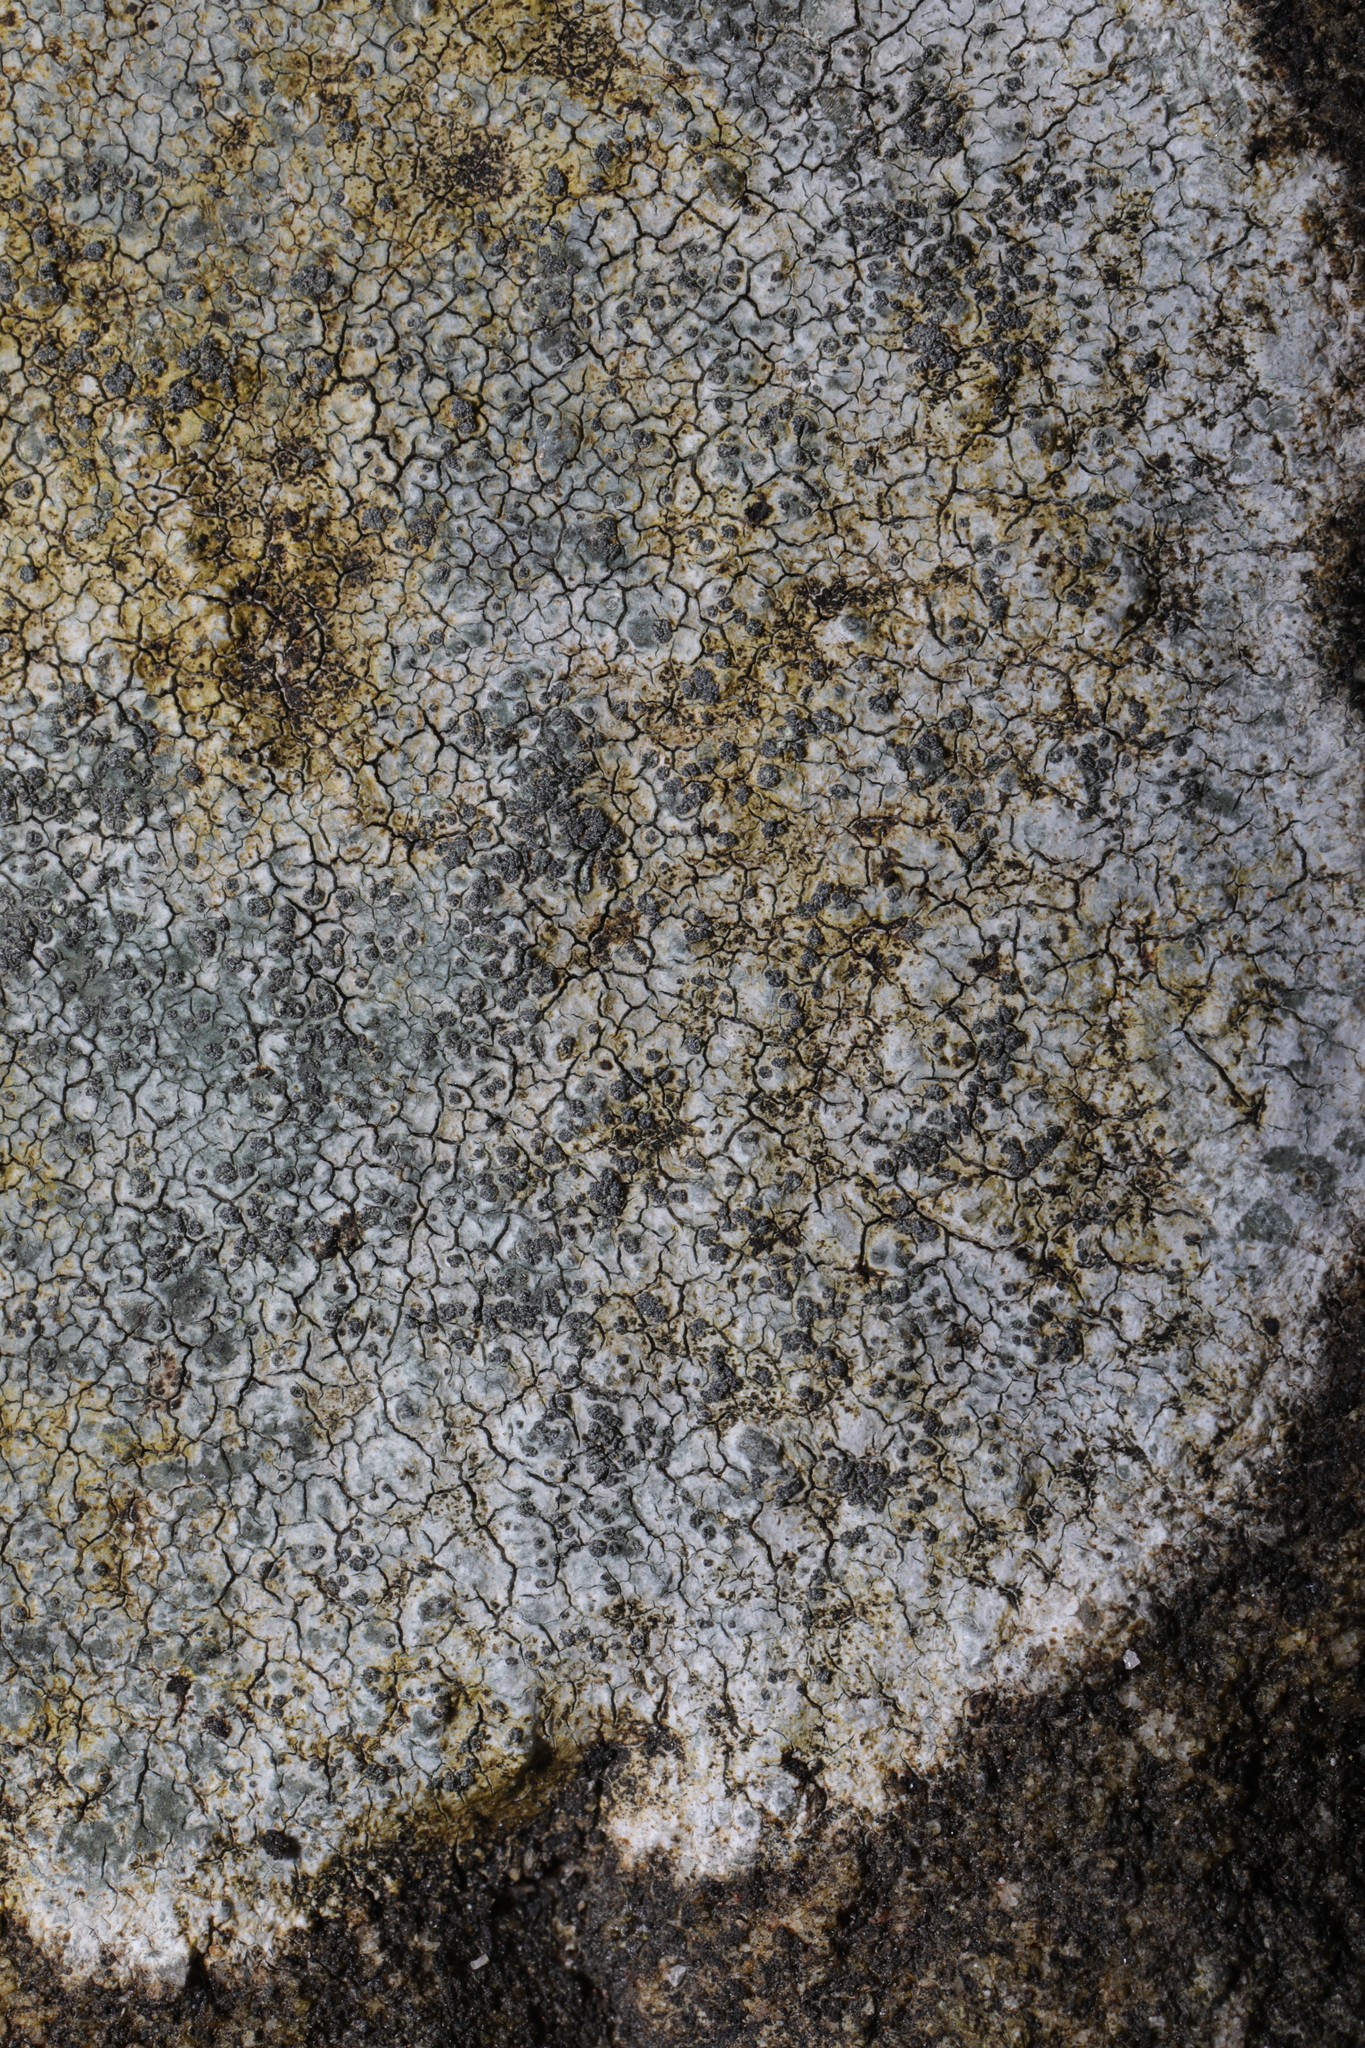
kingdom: Fungi
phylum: Ascomycota
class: Lecanoromycetes
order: Lecideales
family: Lecideaceae
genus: Porpidia
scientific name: Porpidia tuberculosa
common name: Boulder lichen
